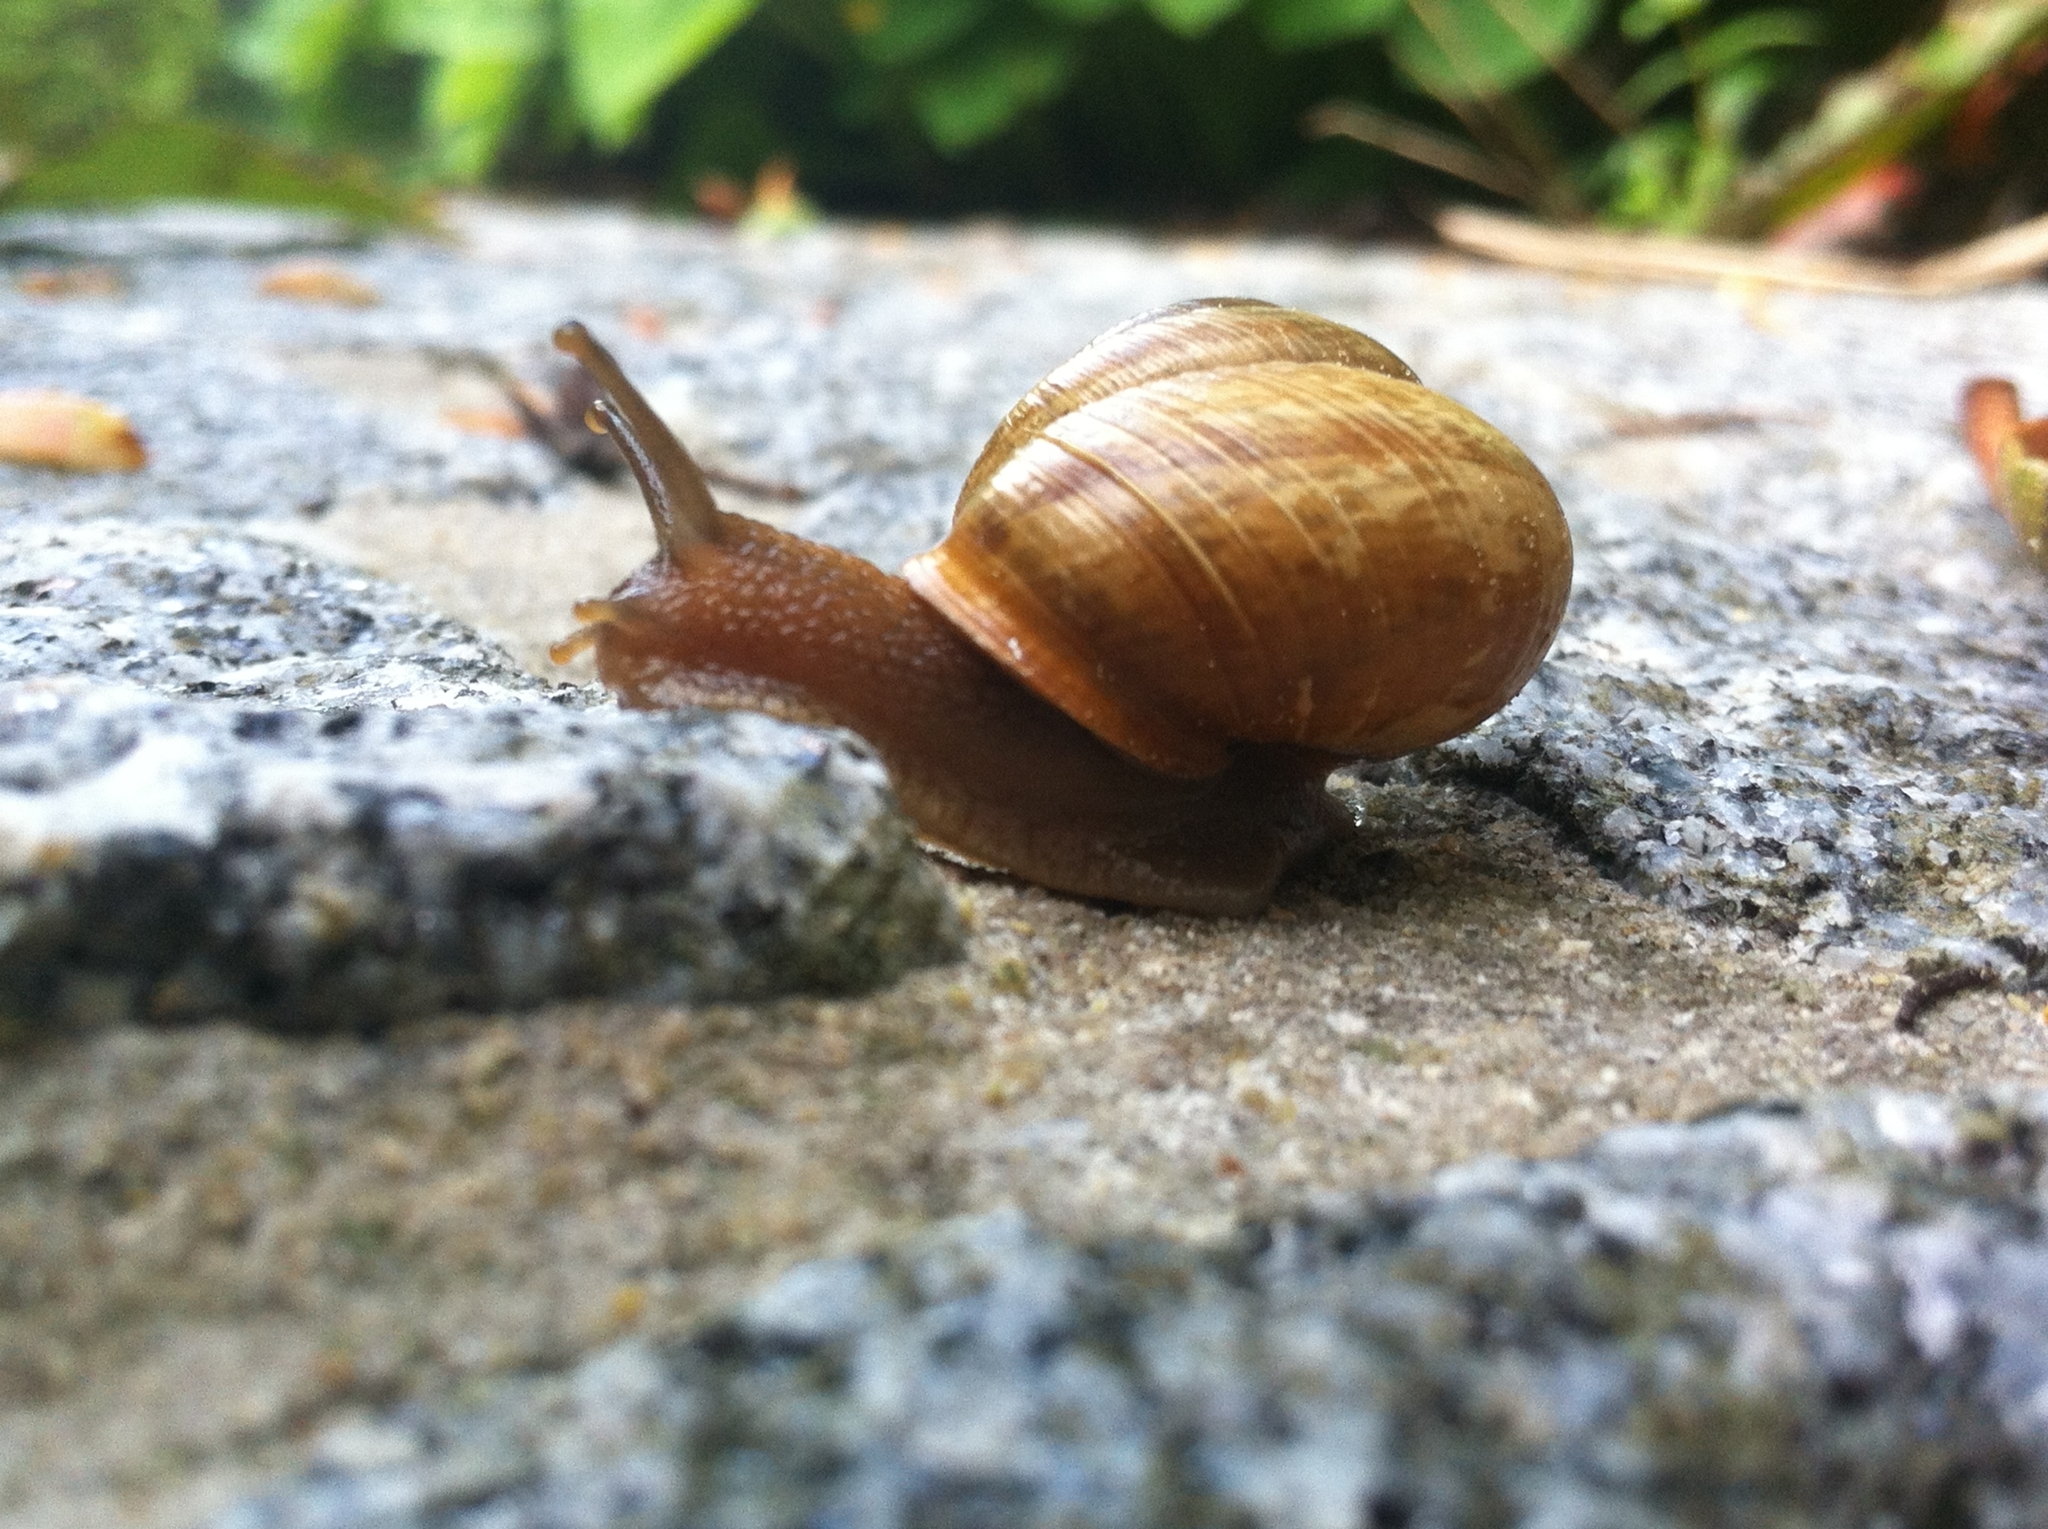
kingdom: Animalia
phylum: Mollusca
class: Gastropoda
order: Stylommatophora
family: Helicidae
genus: Arianta
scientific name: Arianta arbustorum
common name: Copse snail
